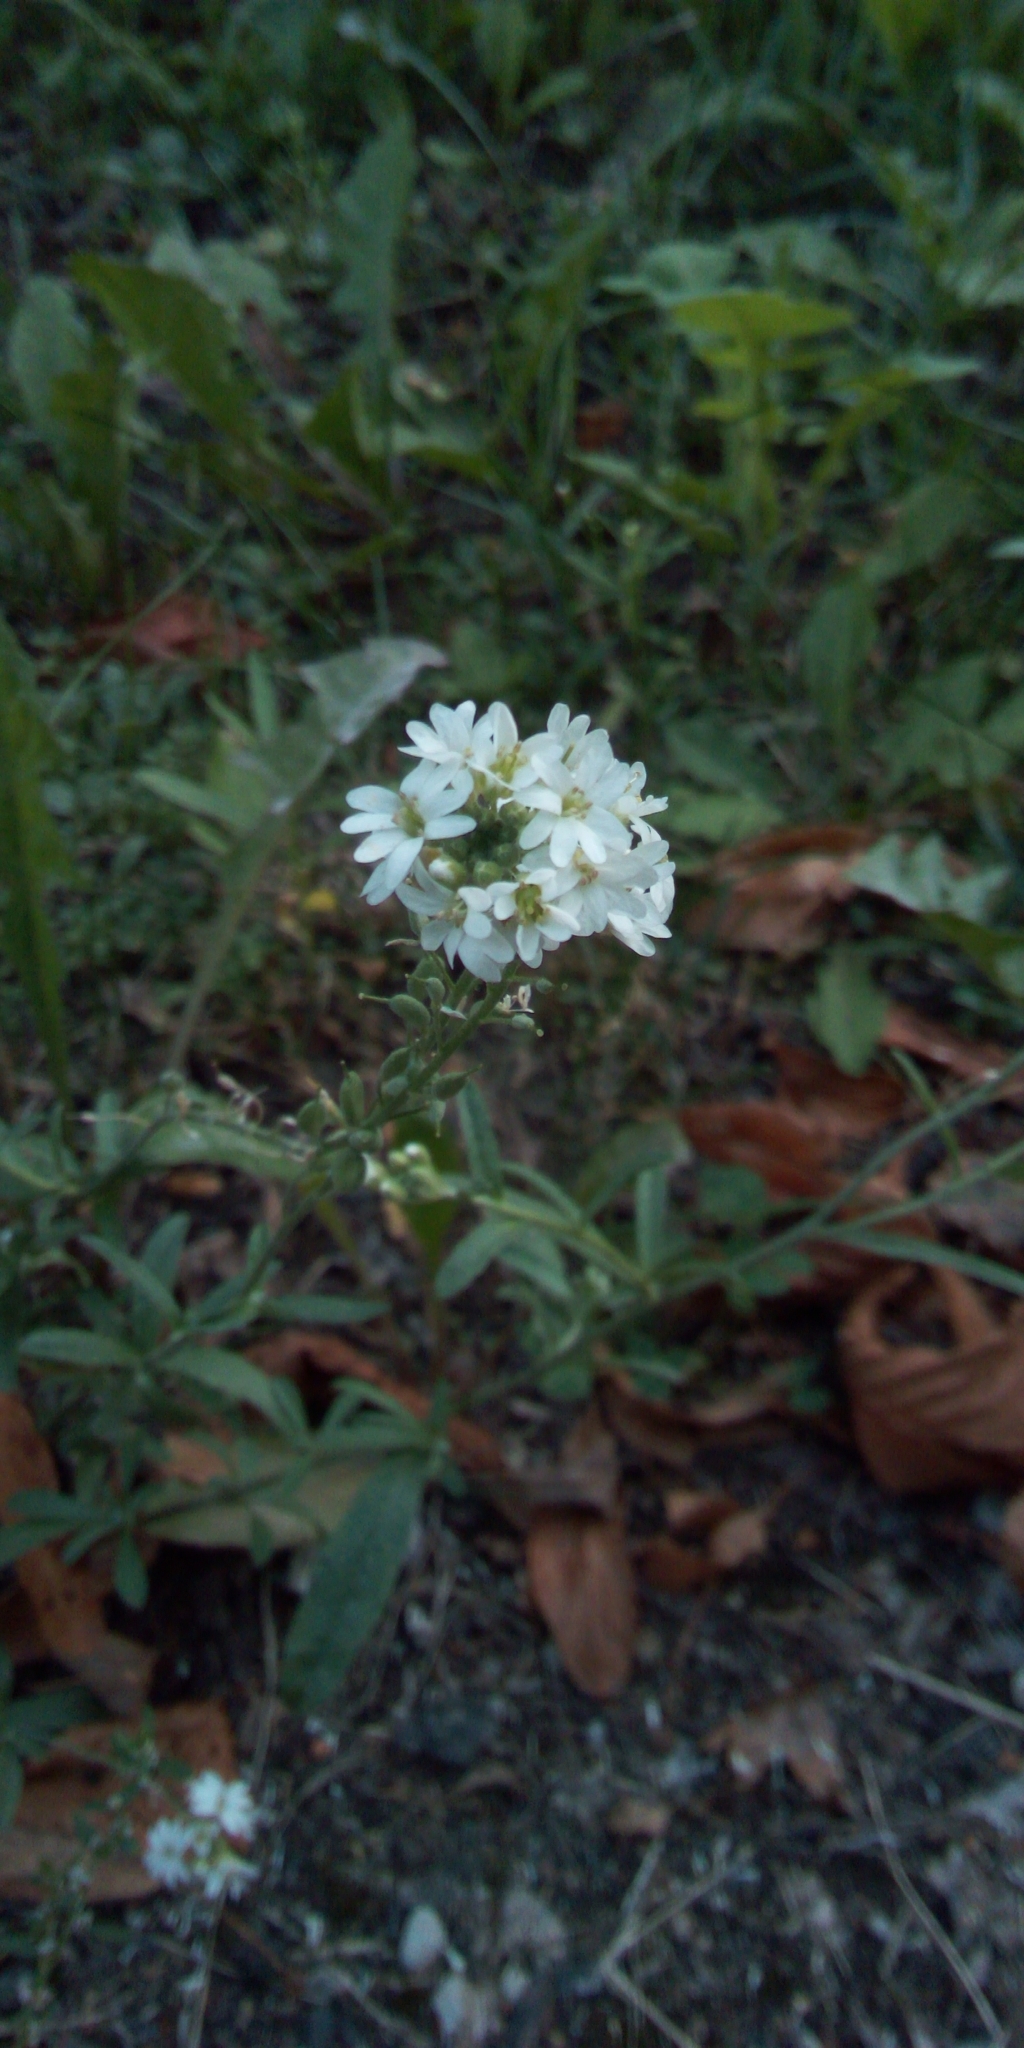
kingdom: Plantae
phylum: Tracheophyta
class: Magnoliopsida
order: Brassicales
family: Brassicaceae
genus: Berteroa
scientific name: Berteroa incana
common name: Hoary alison
